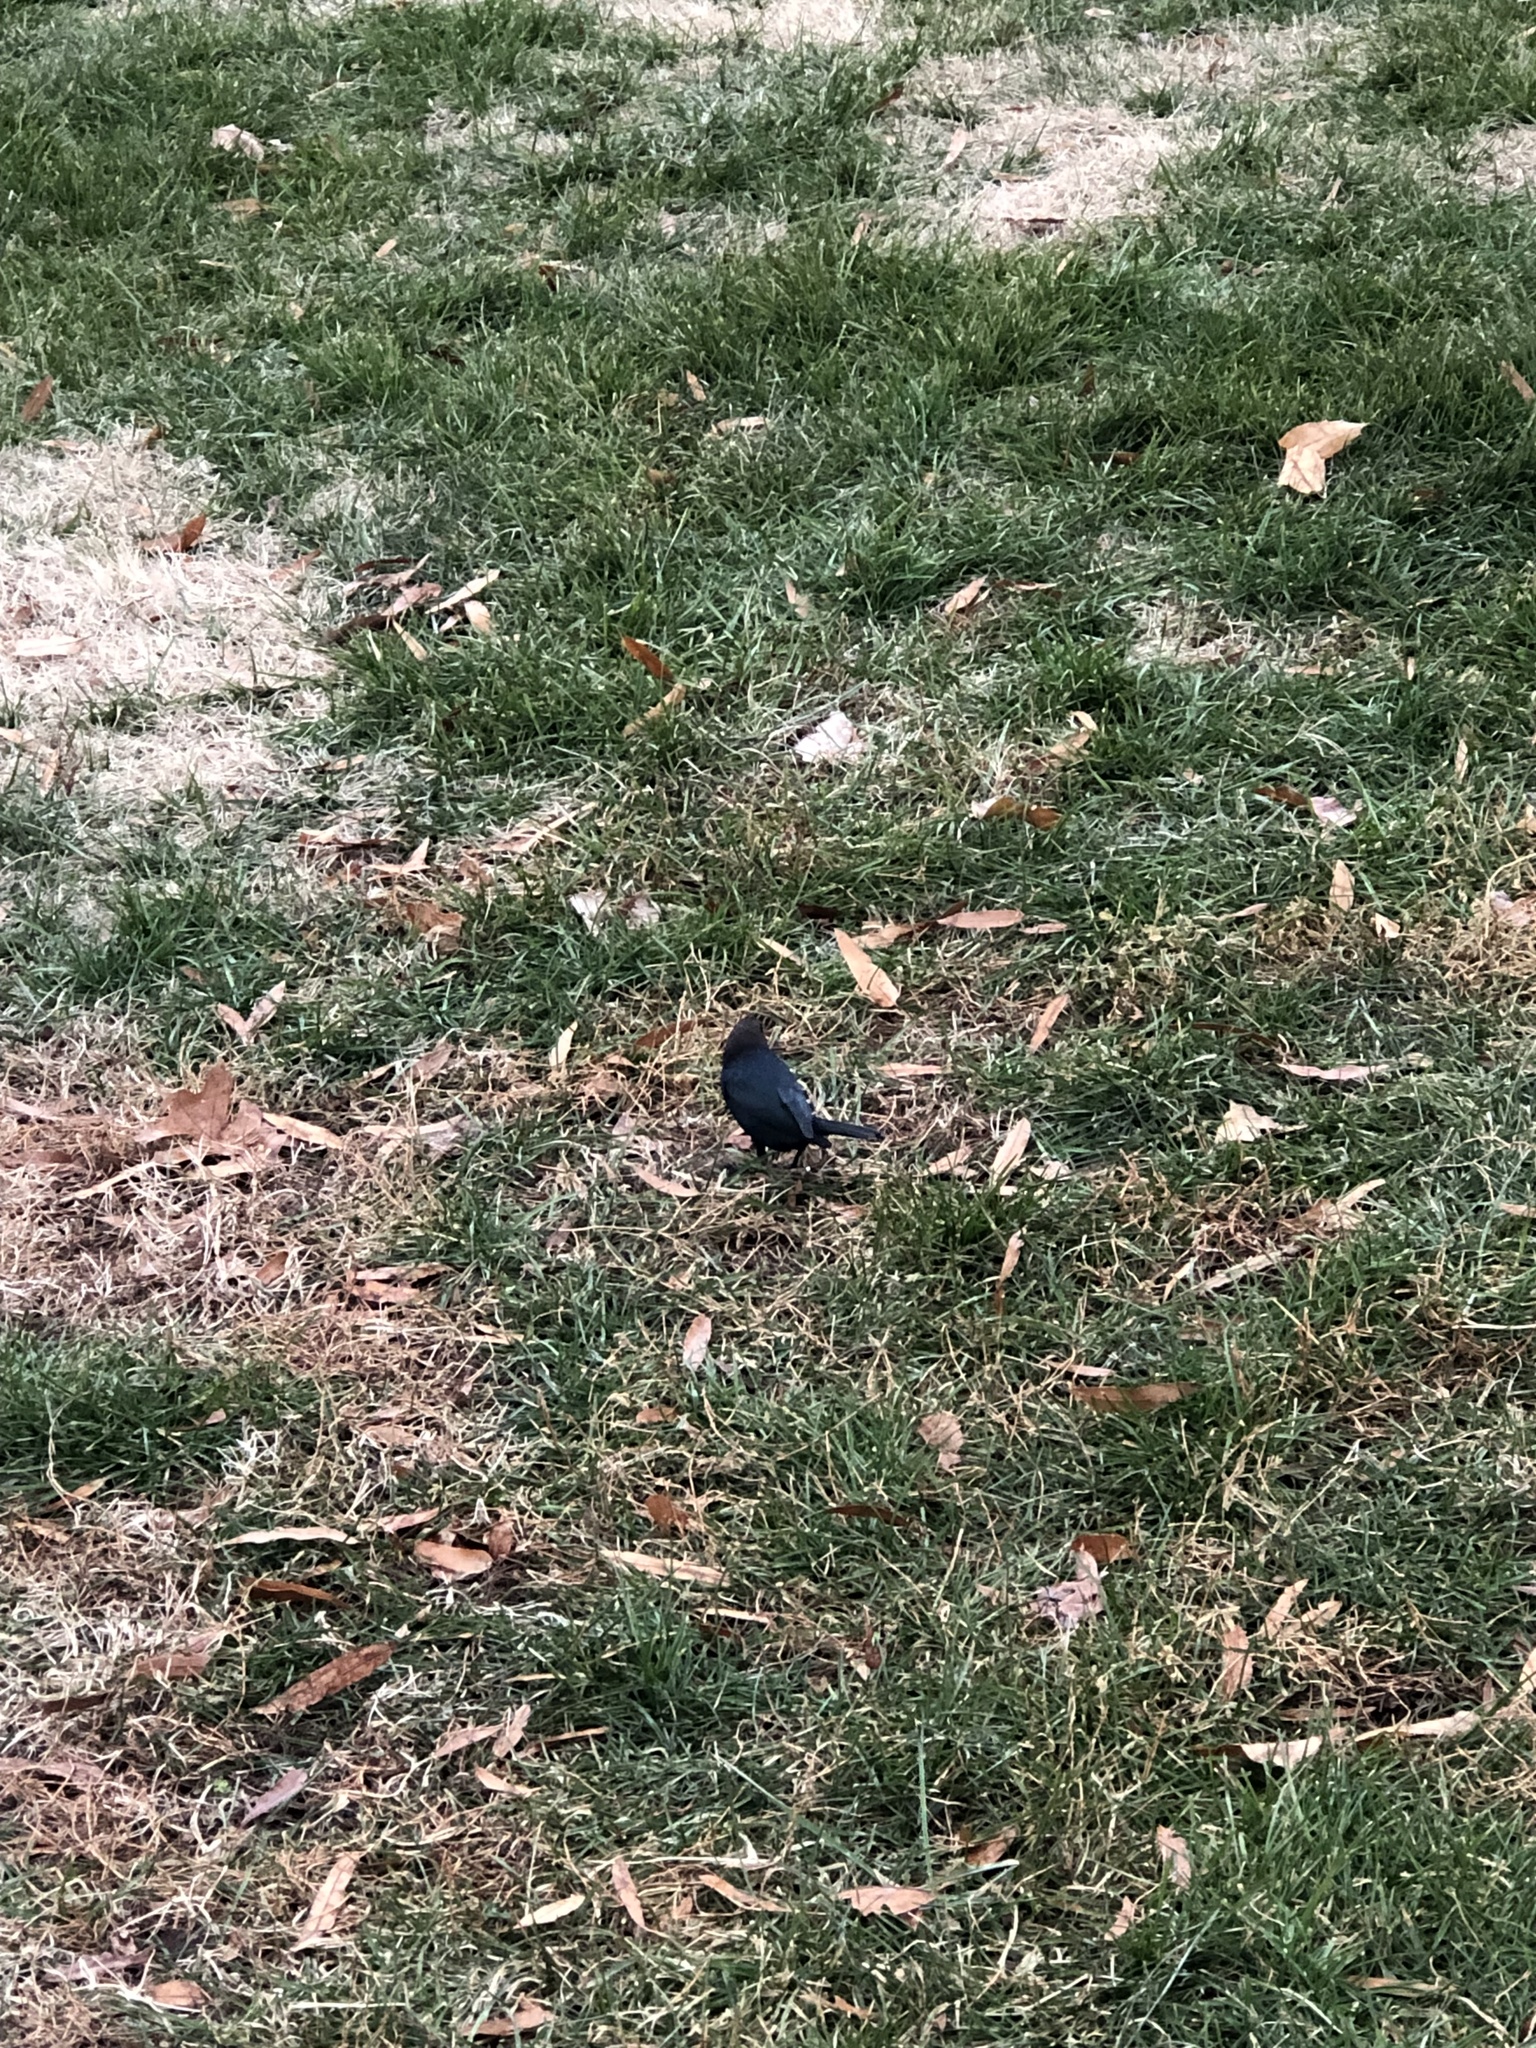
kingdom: Animalia
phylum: Chordata
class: Aves
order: Passeriformes
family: Icteridae
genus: Molothrus
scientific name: Molothrus ater
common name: Brown-headed cowbird
